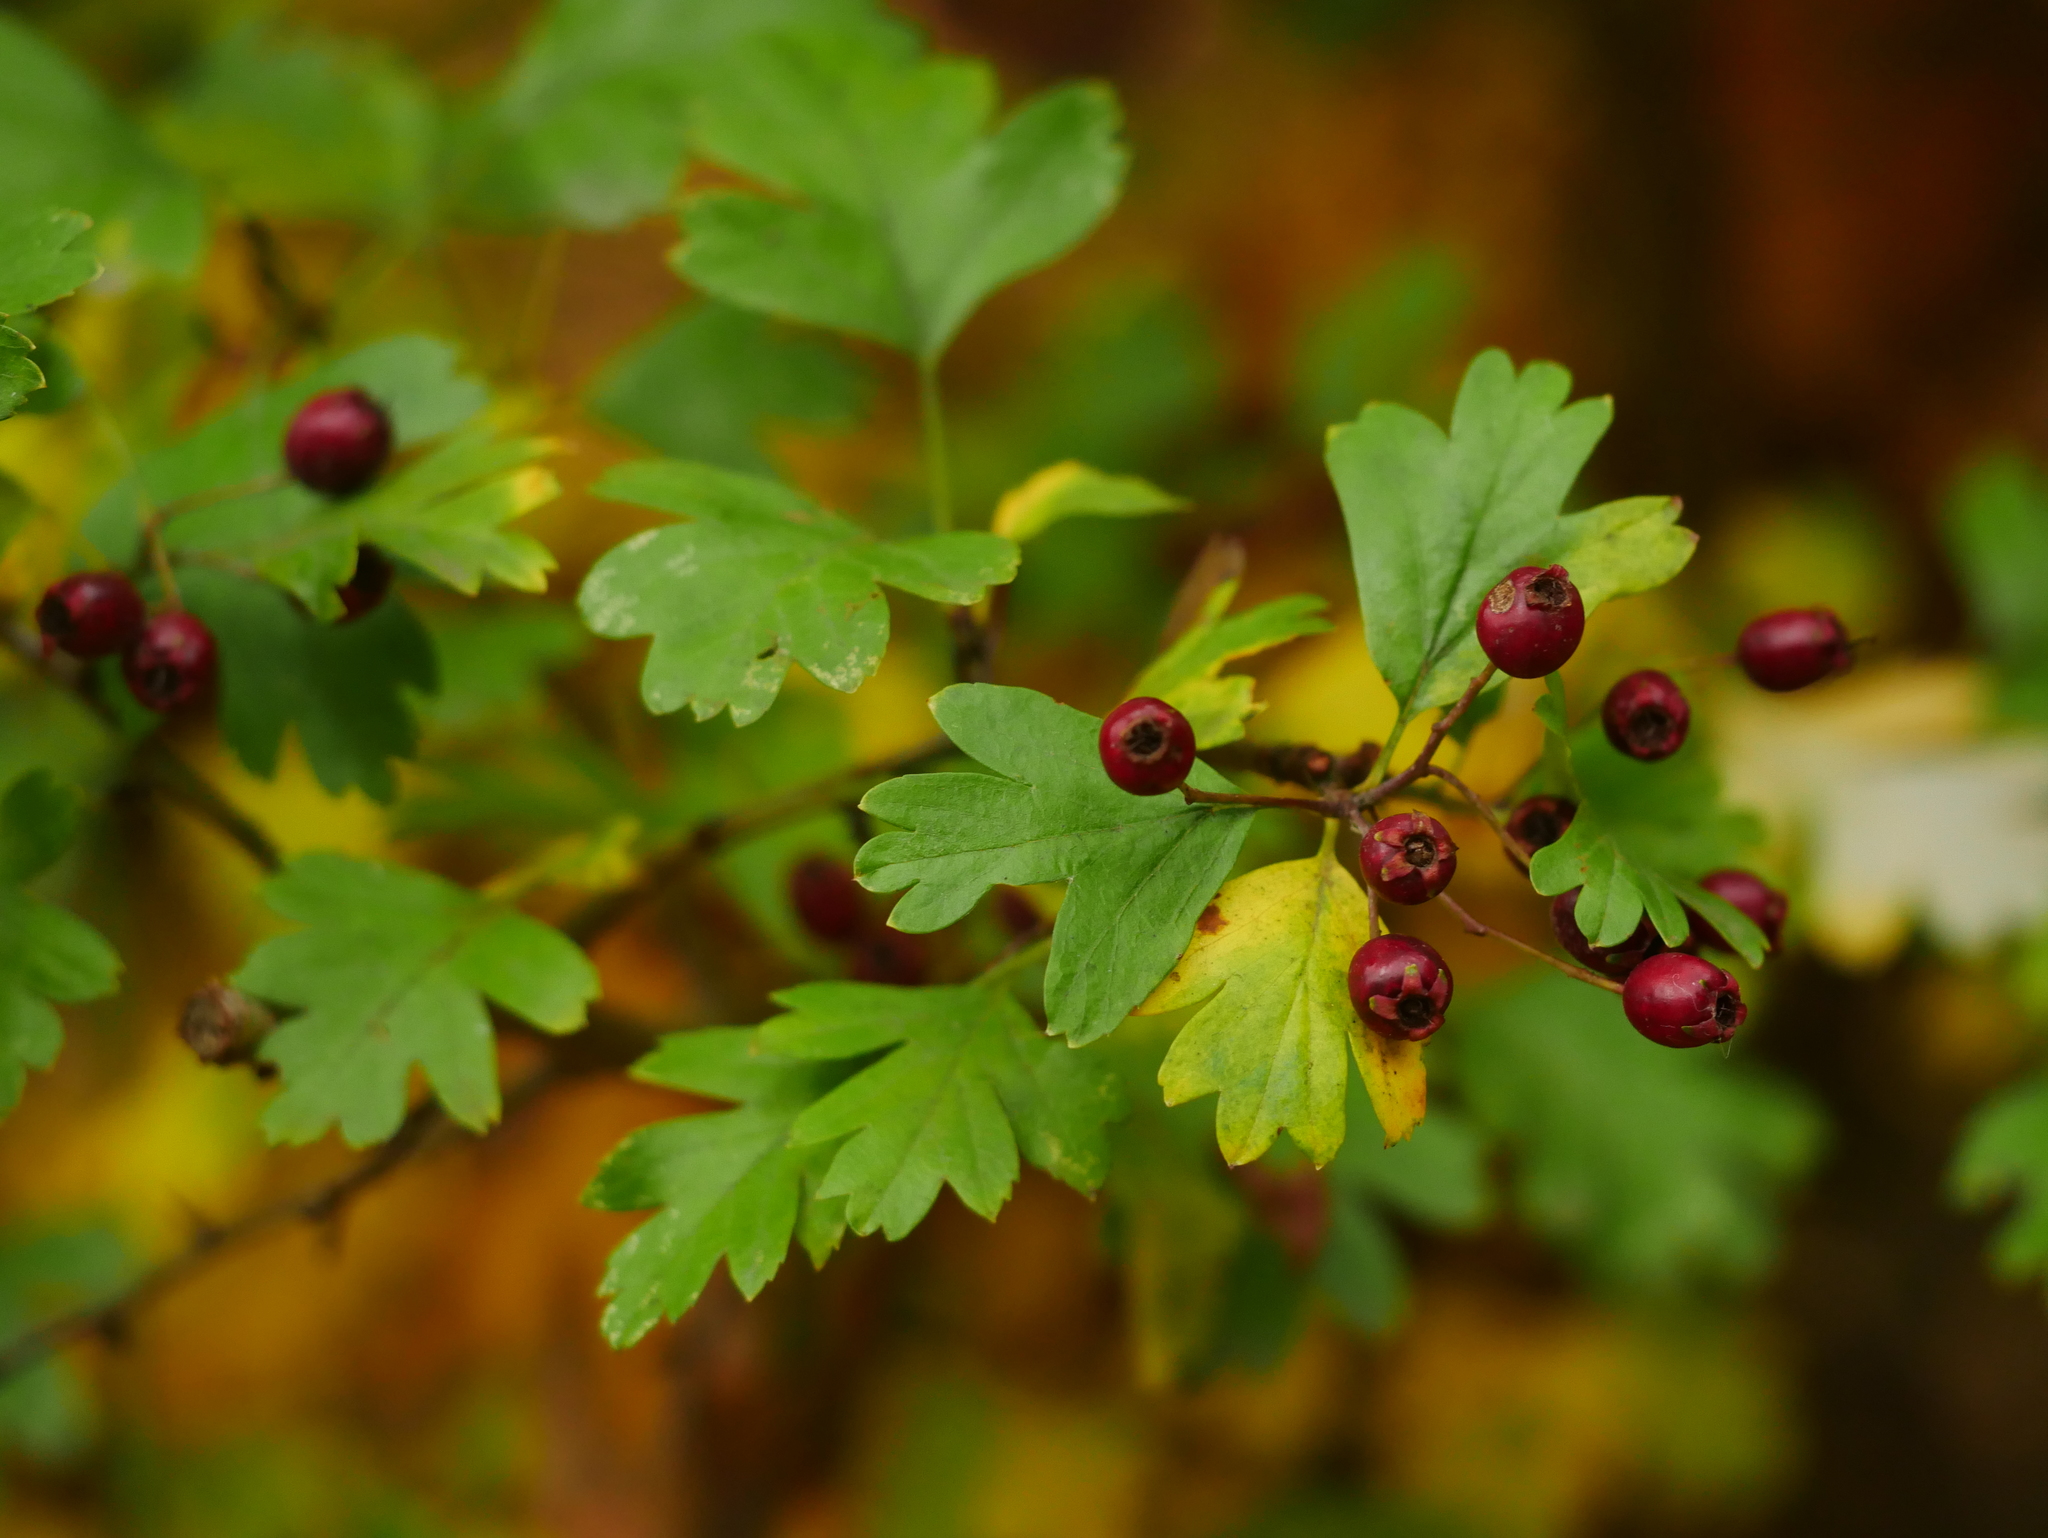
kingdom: Plantae
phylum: Tracheophyta
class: Magnoliopsida
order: Rosales
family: Rosaceae
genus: Crataegus
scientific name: Crataegus monogyna
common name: Hawthorn
